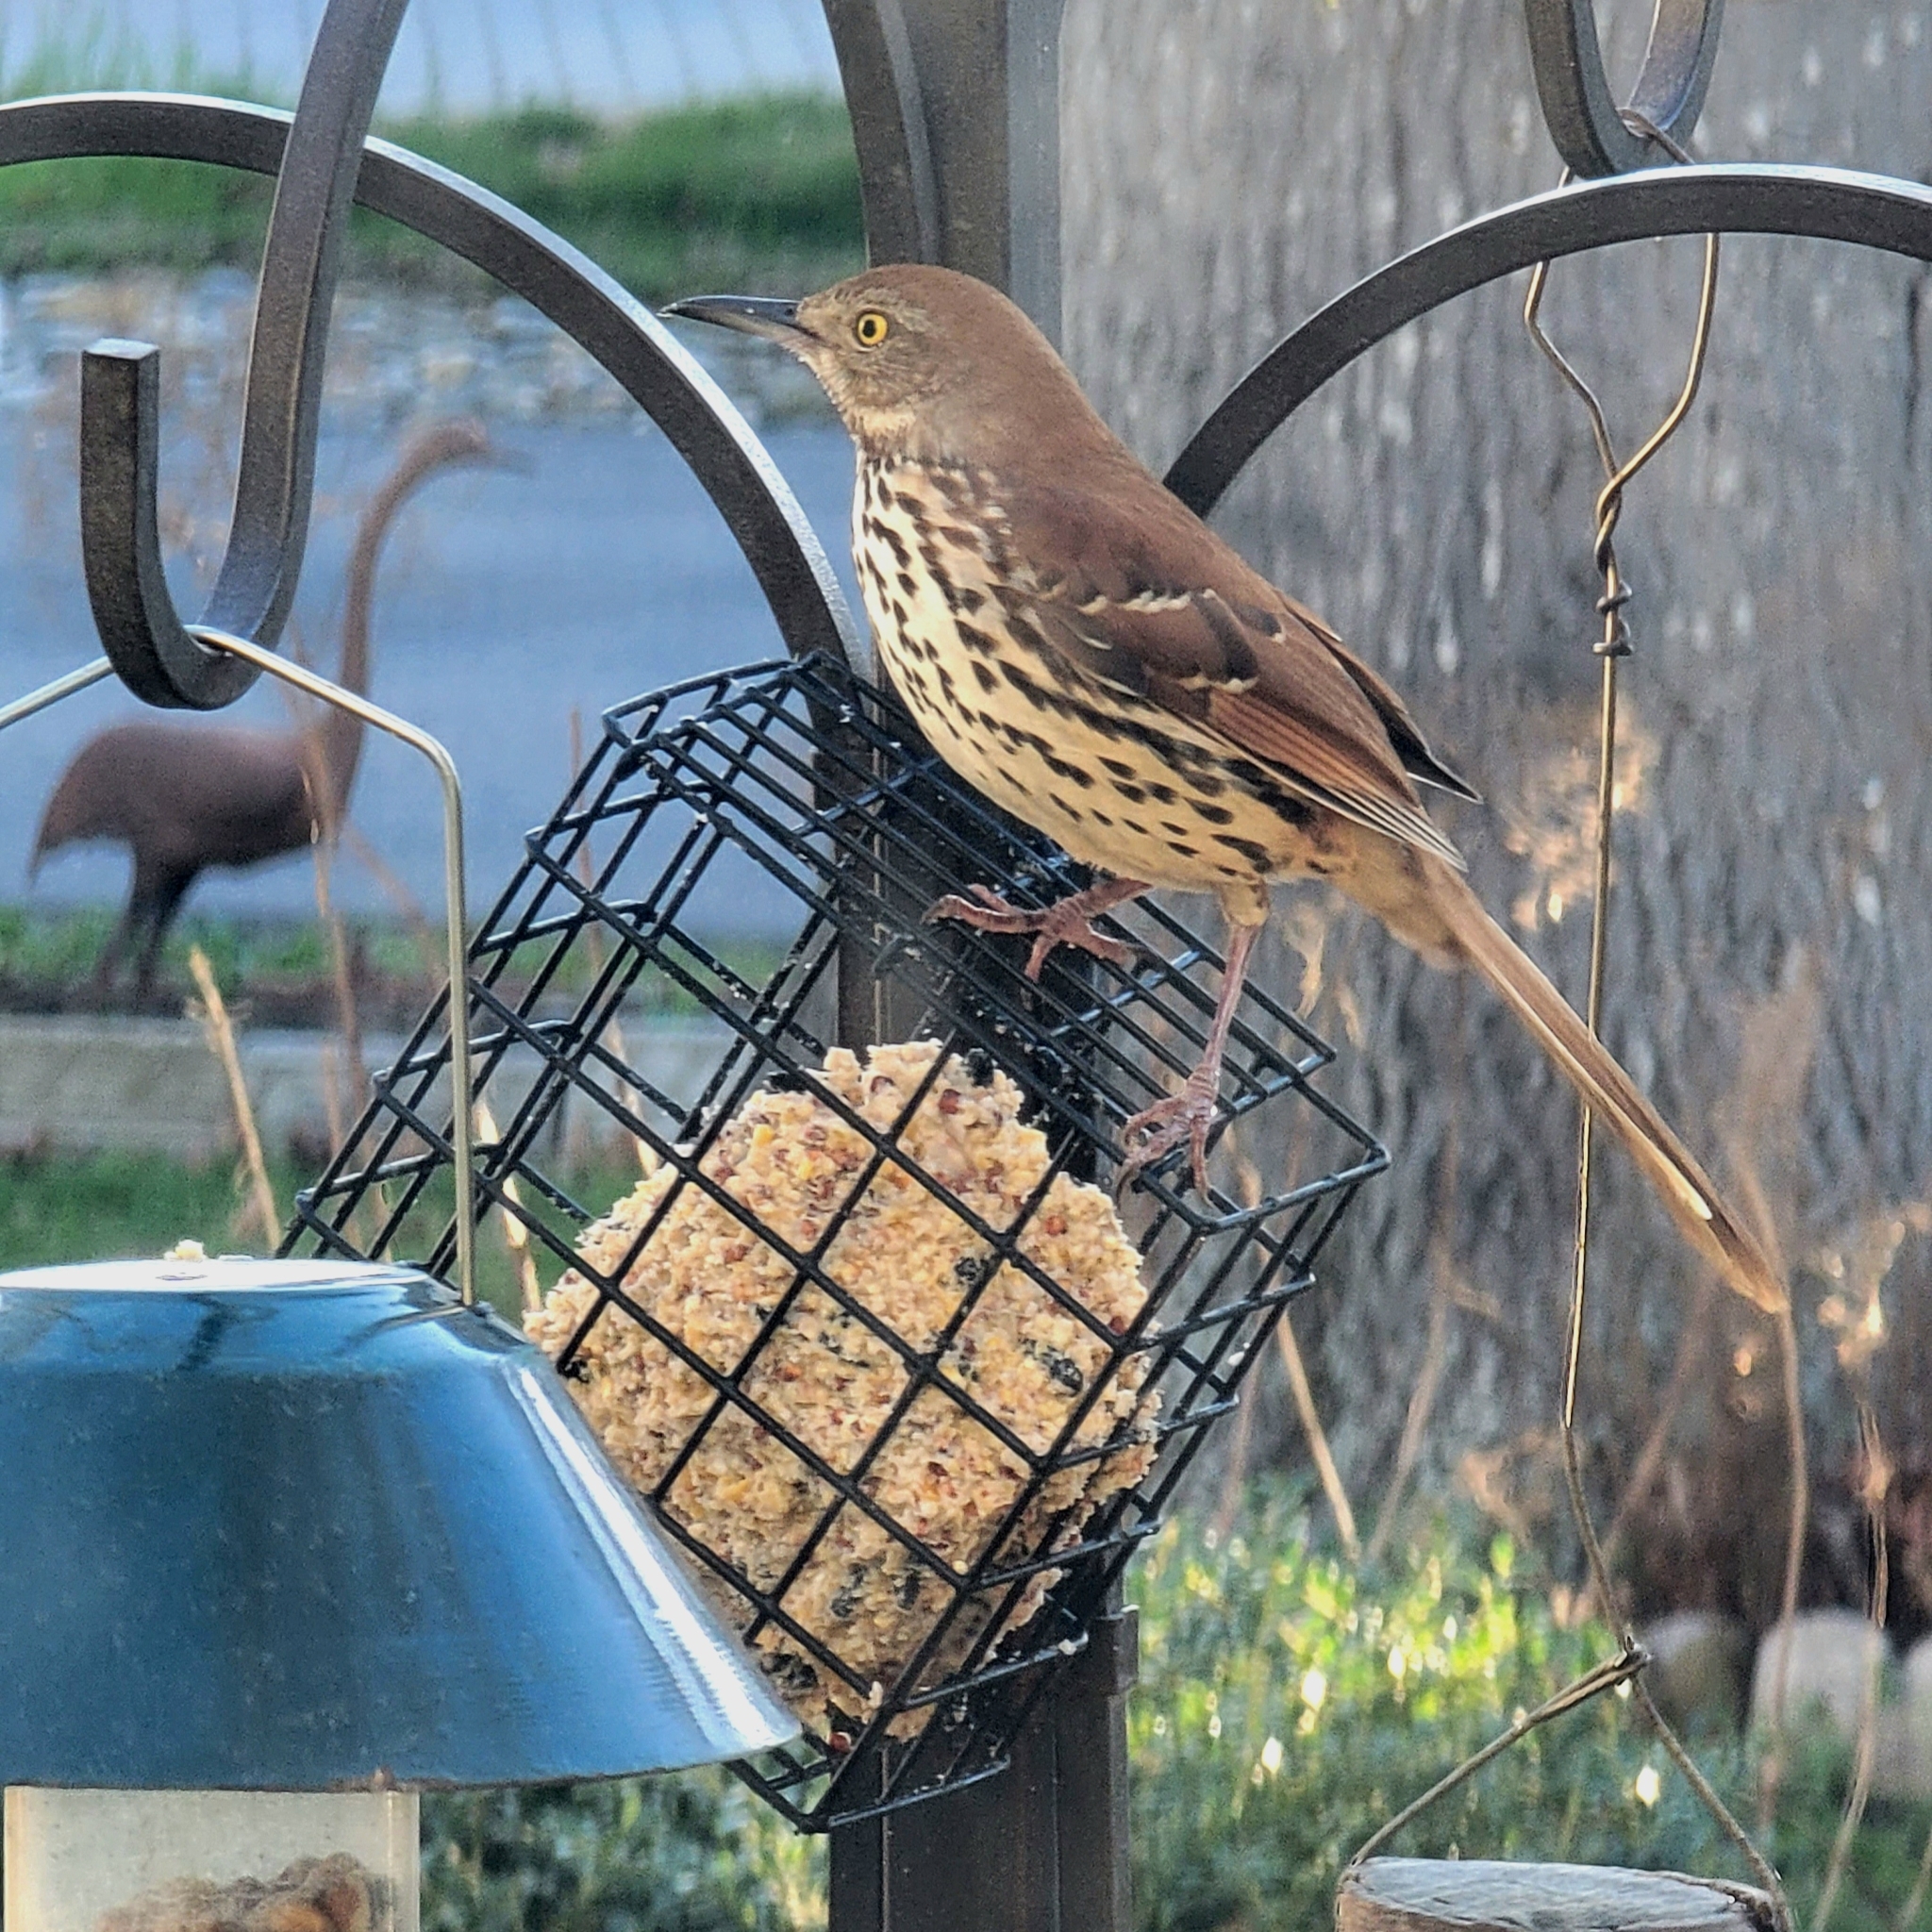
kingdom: Animalia
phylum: Chordata
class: Aves
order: Passeriformes
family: Mimidae
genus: Toxostoma
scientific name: Toxostoma rufum
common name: Brown thrasher
